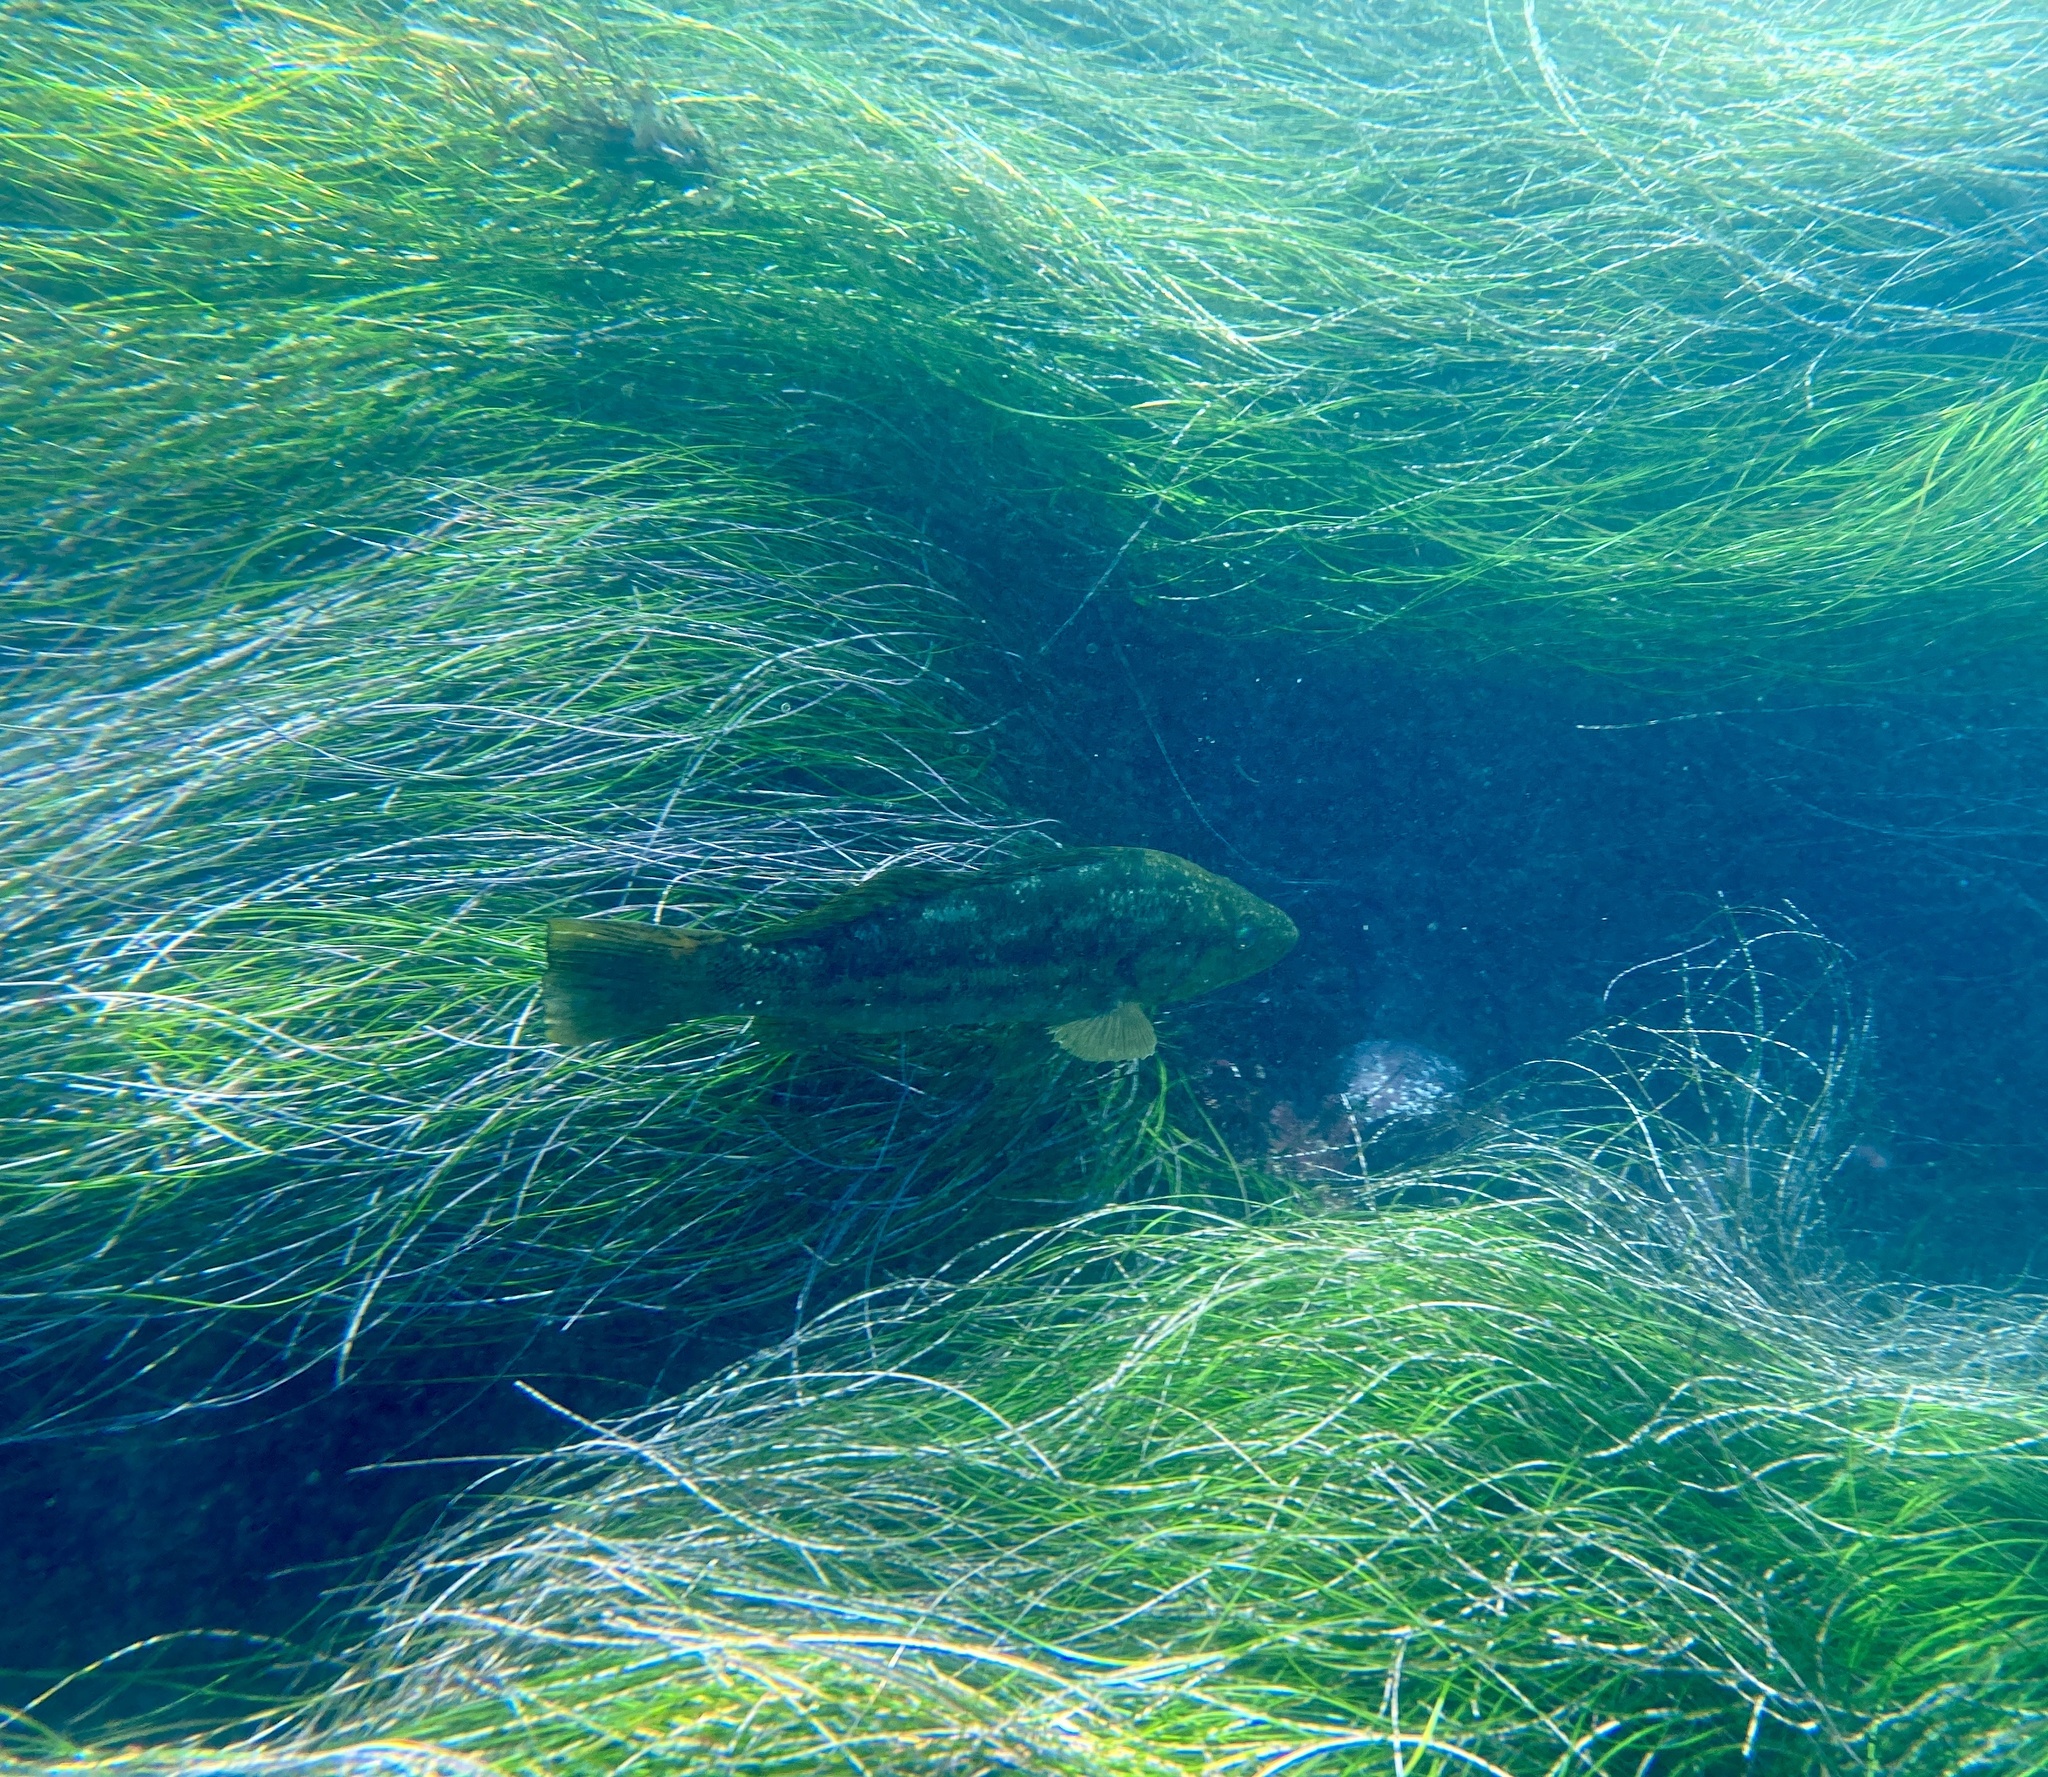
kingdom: Animalia
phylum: Chordata
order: Perciformes
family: Serranidae
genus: Paralabrax
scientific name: Paralabrax clathratus
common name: Kelp bass
